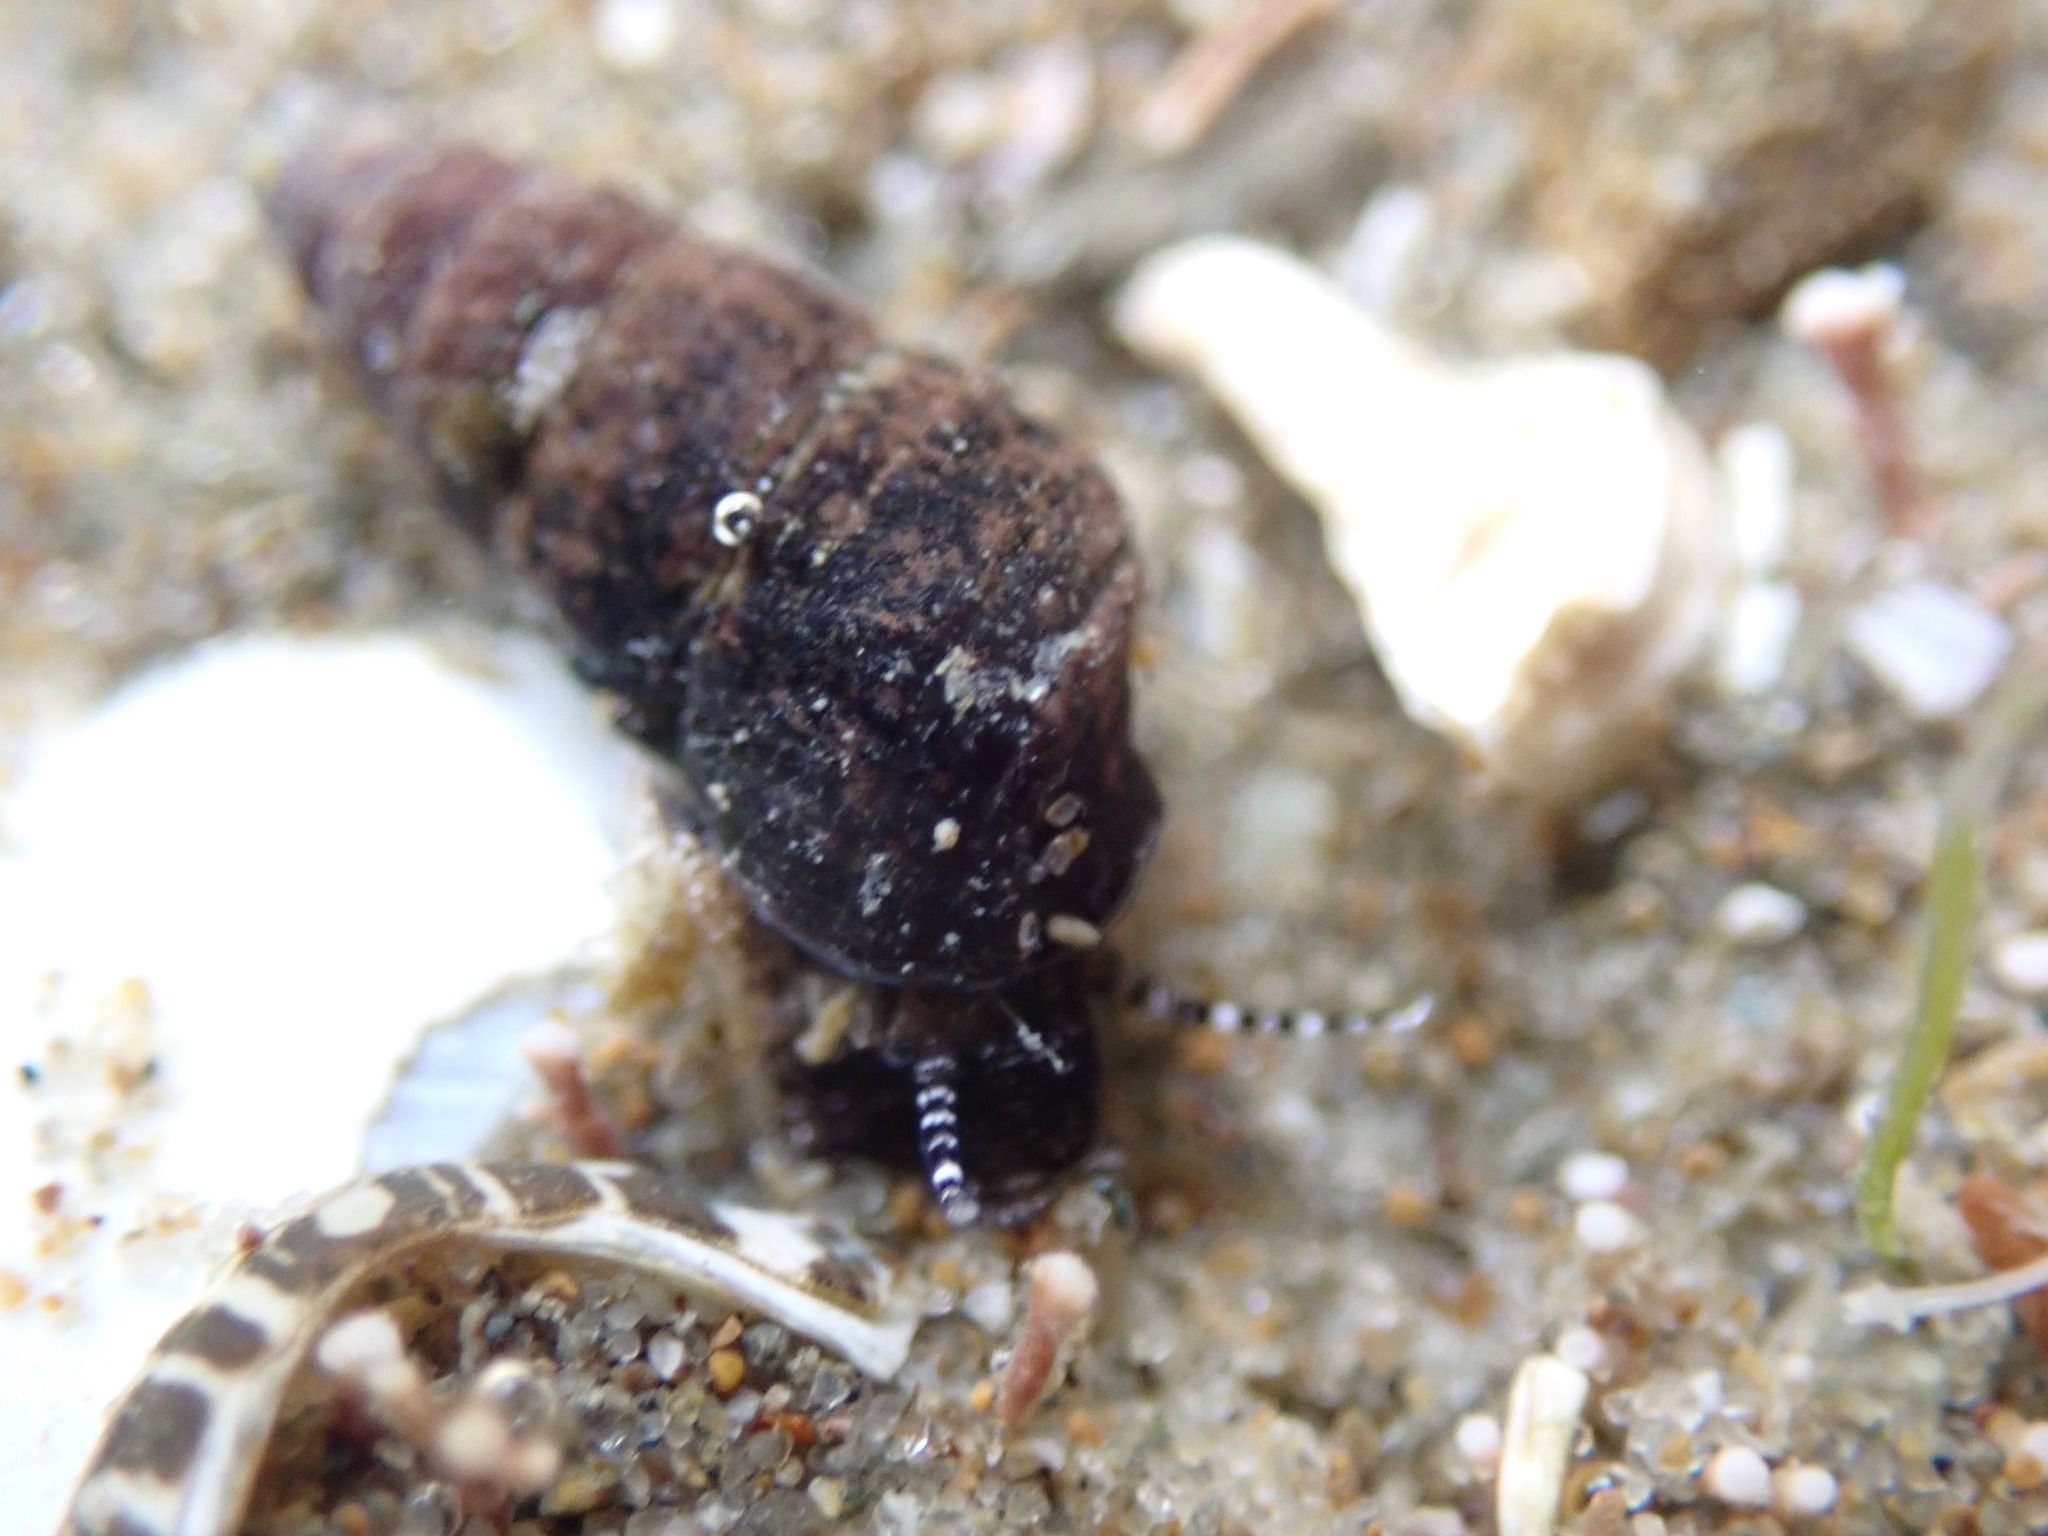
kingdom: Animalia
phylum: Mollusca
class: Gastropoda
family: Batillariidae
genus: Zeacumantus
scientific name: Zeacumantus subcarinatus
